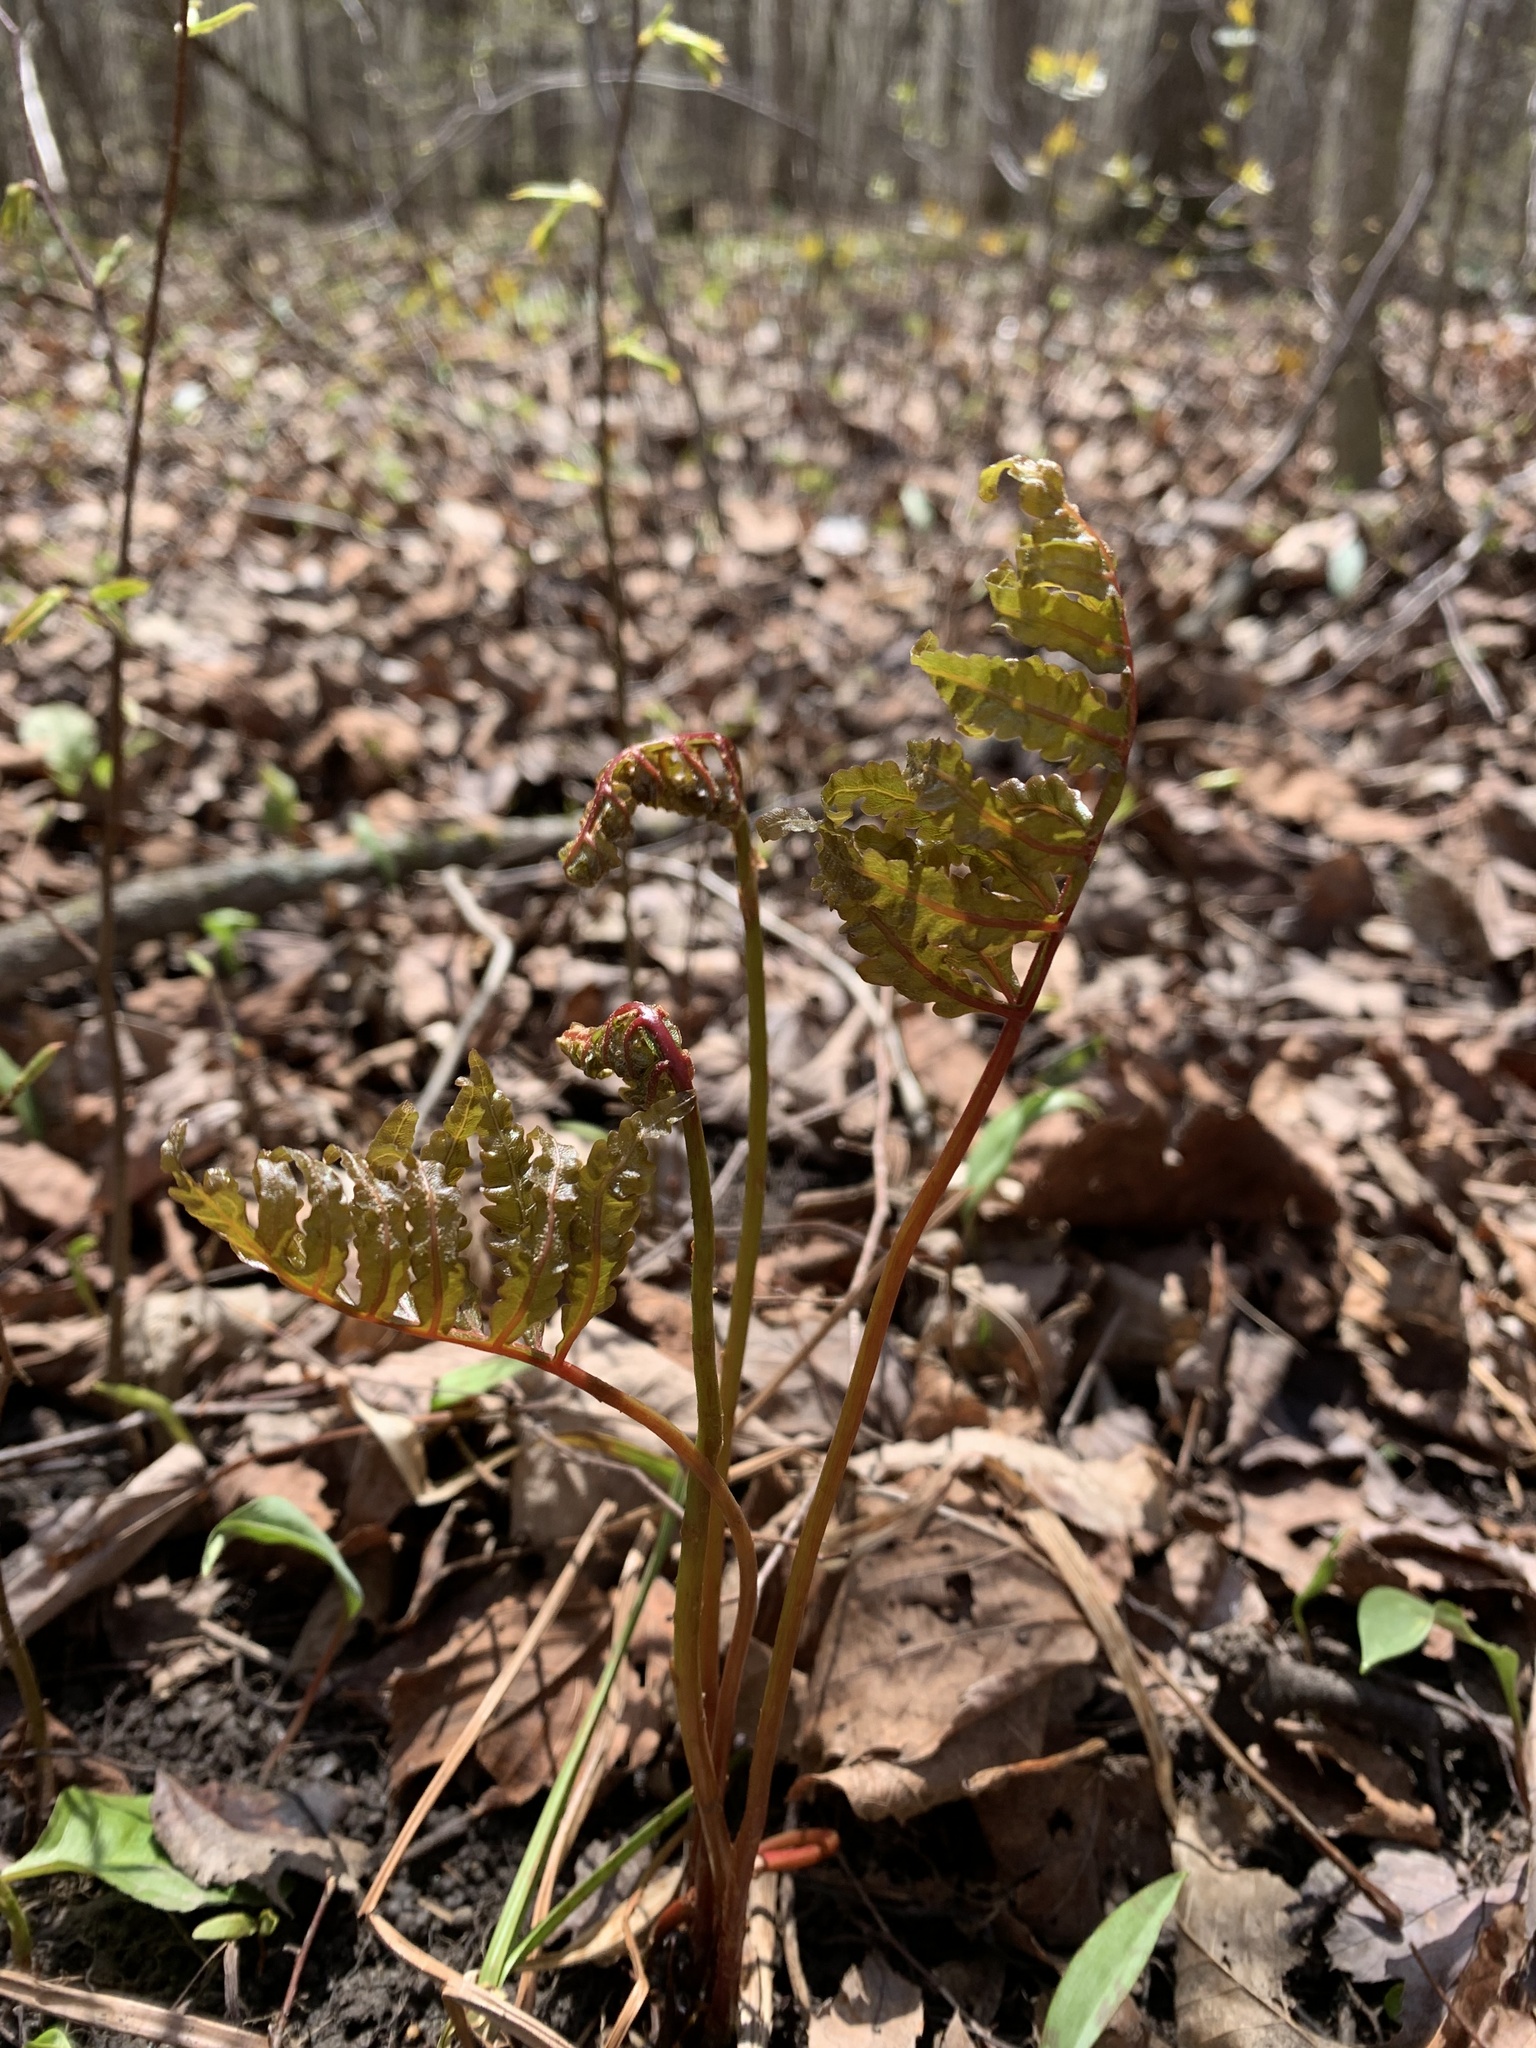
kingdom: Plantae
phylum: Tracheophyta
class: Polypodiopsida
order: Polypodiales
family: Onocleaceae
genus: Onoclea
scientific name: Onoclea sensibilis
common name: Sensitive fern
